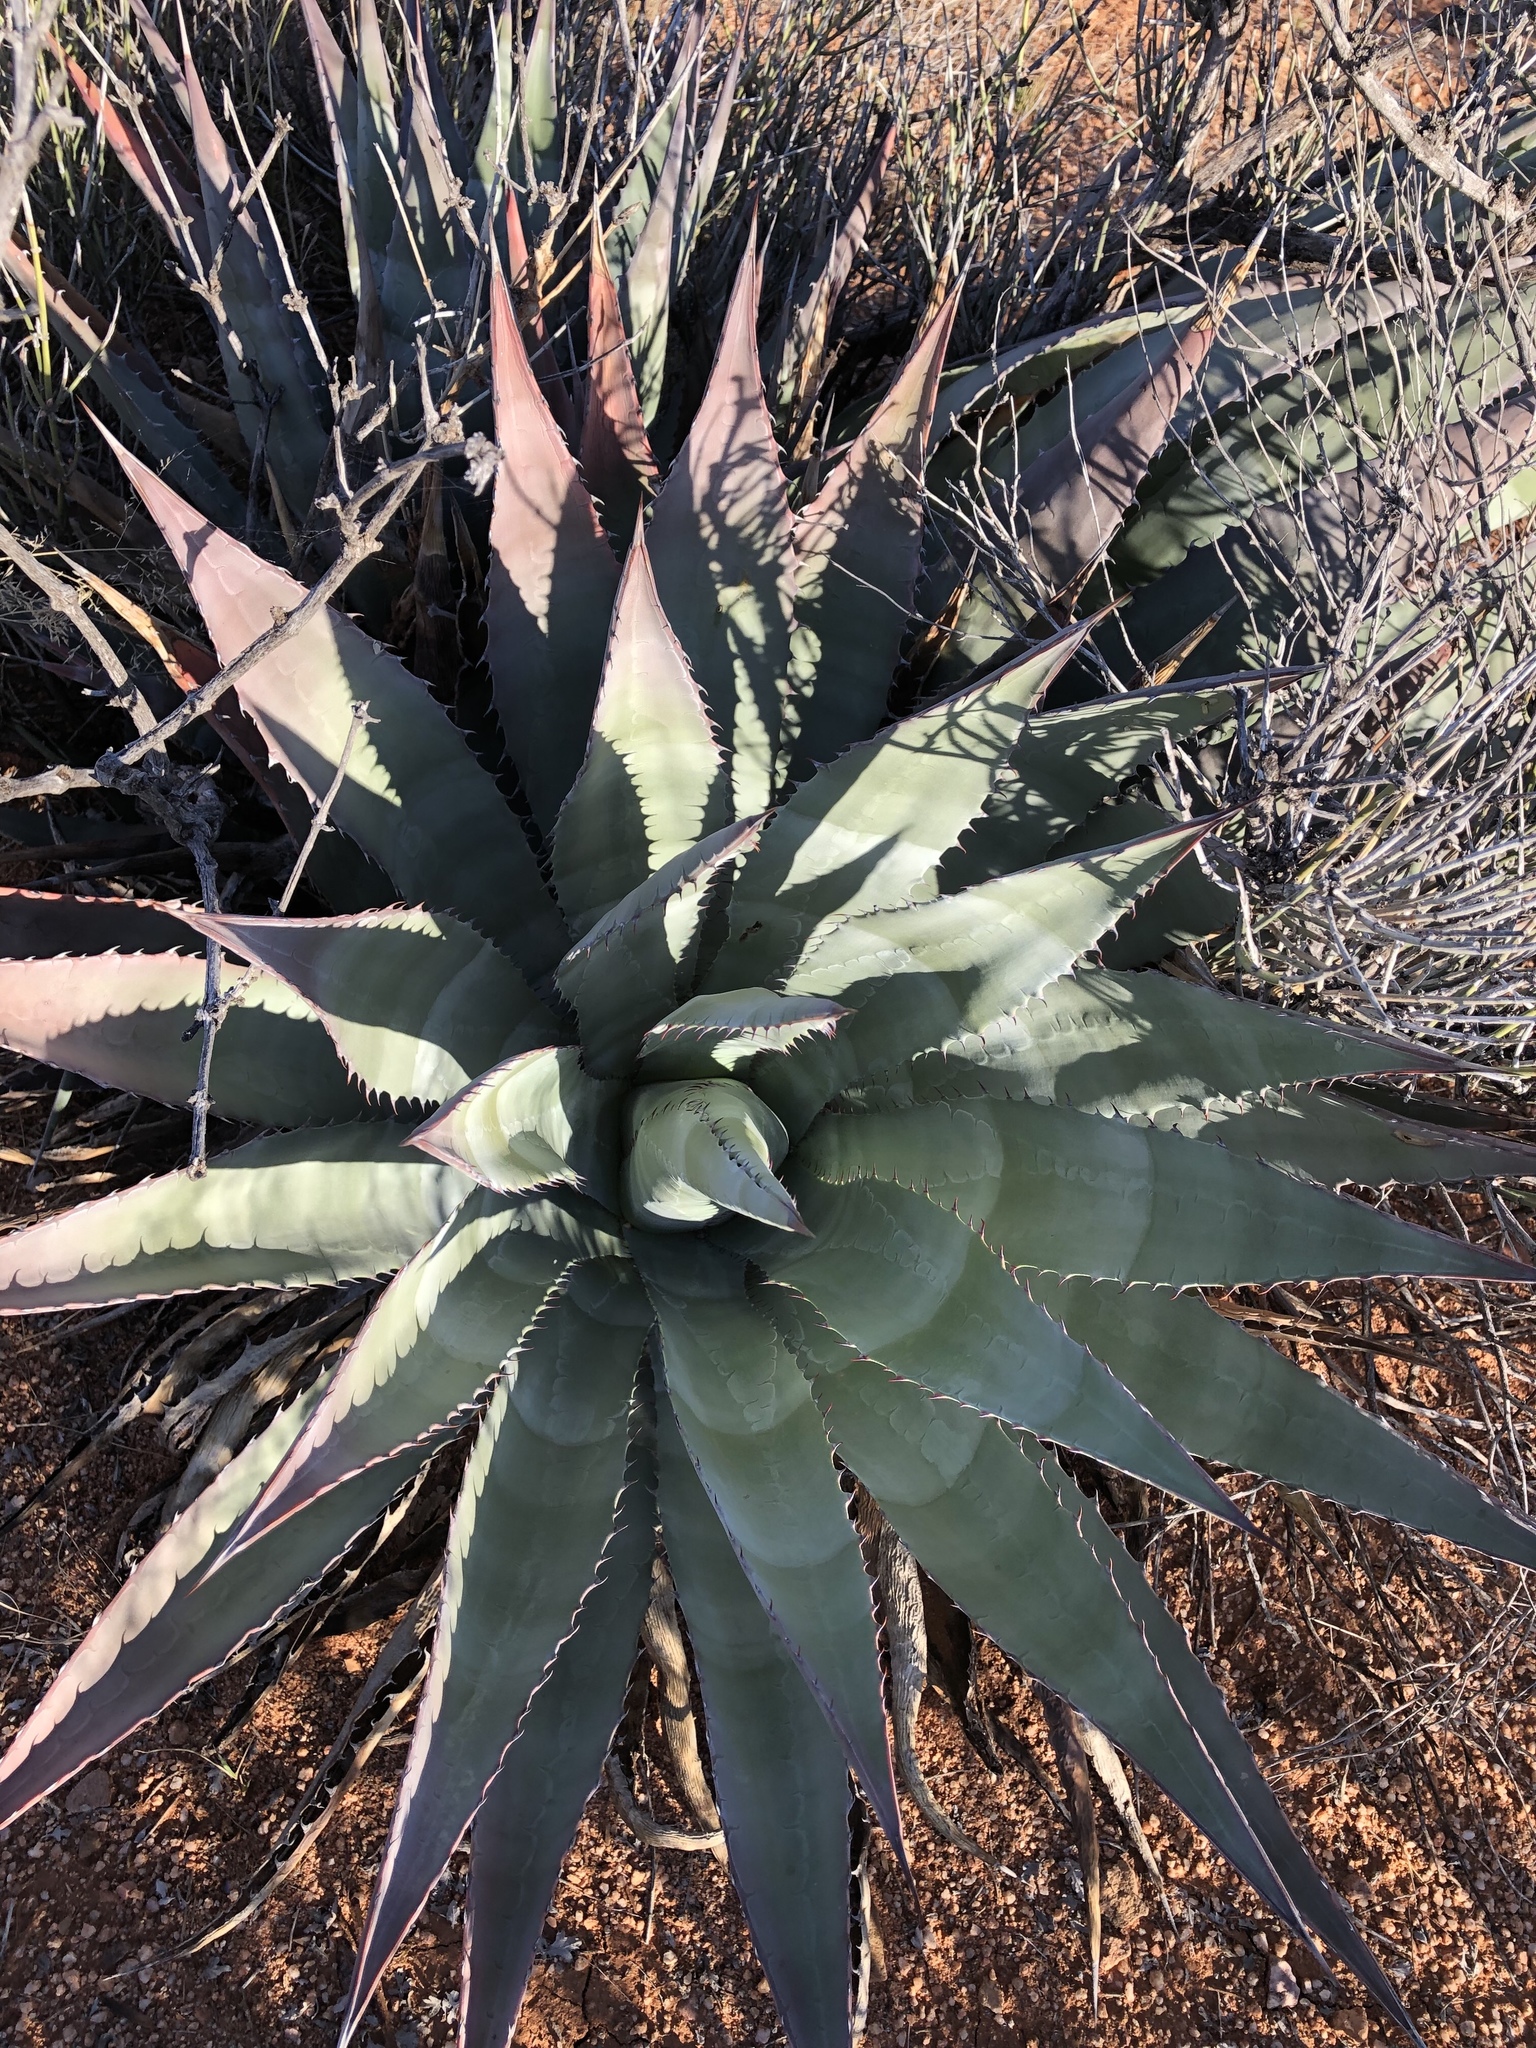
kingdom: Plantae
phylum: Tracheophyta
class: Liliopsida
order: Asparagales
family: Asparagaceae
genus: Agave
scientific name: Agave palmeri
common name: Palmer agave
